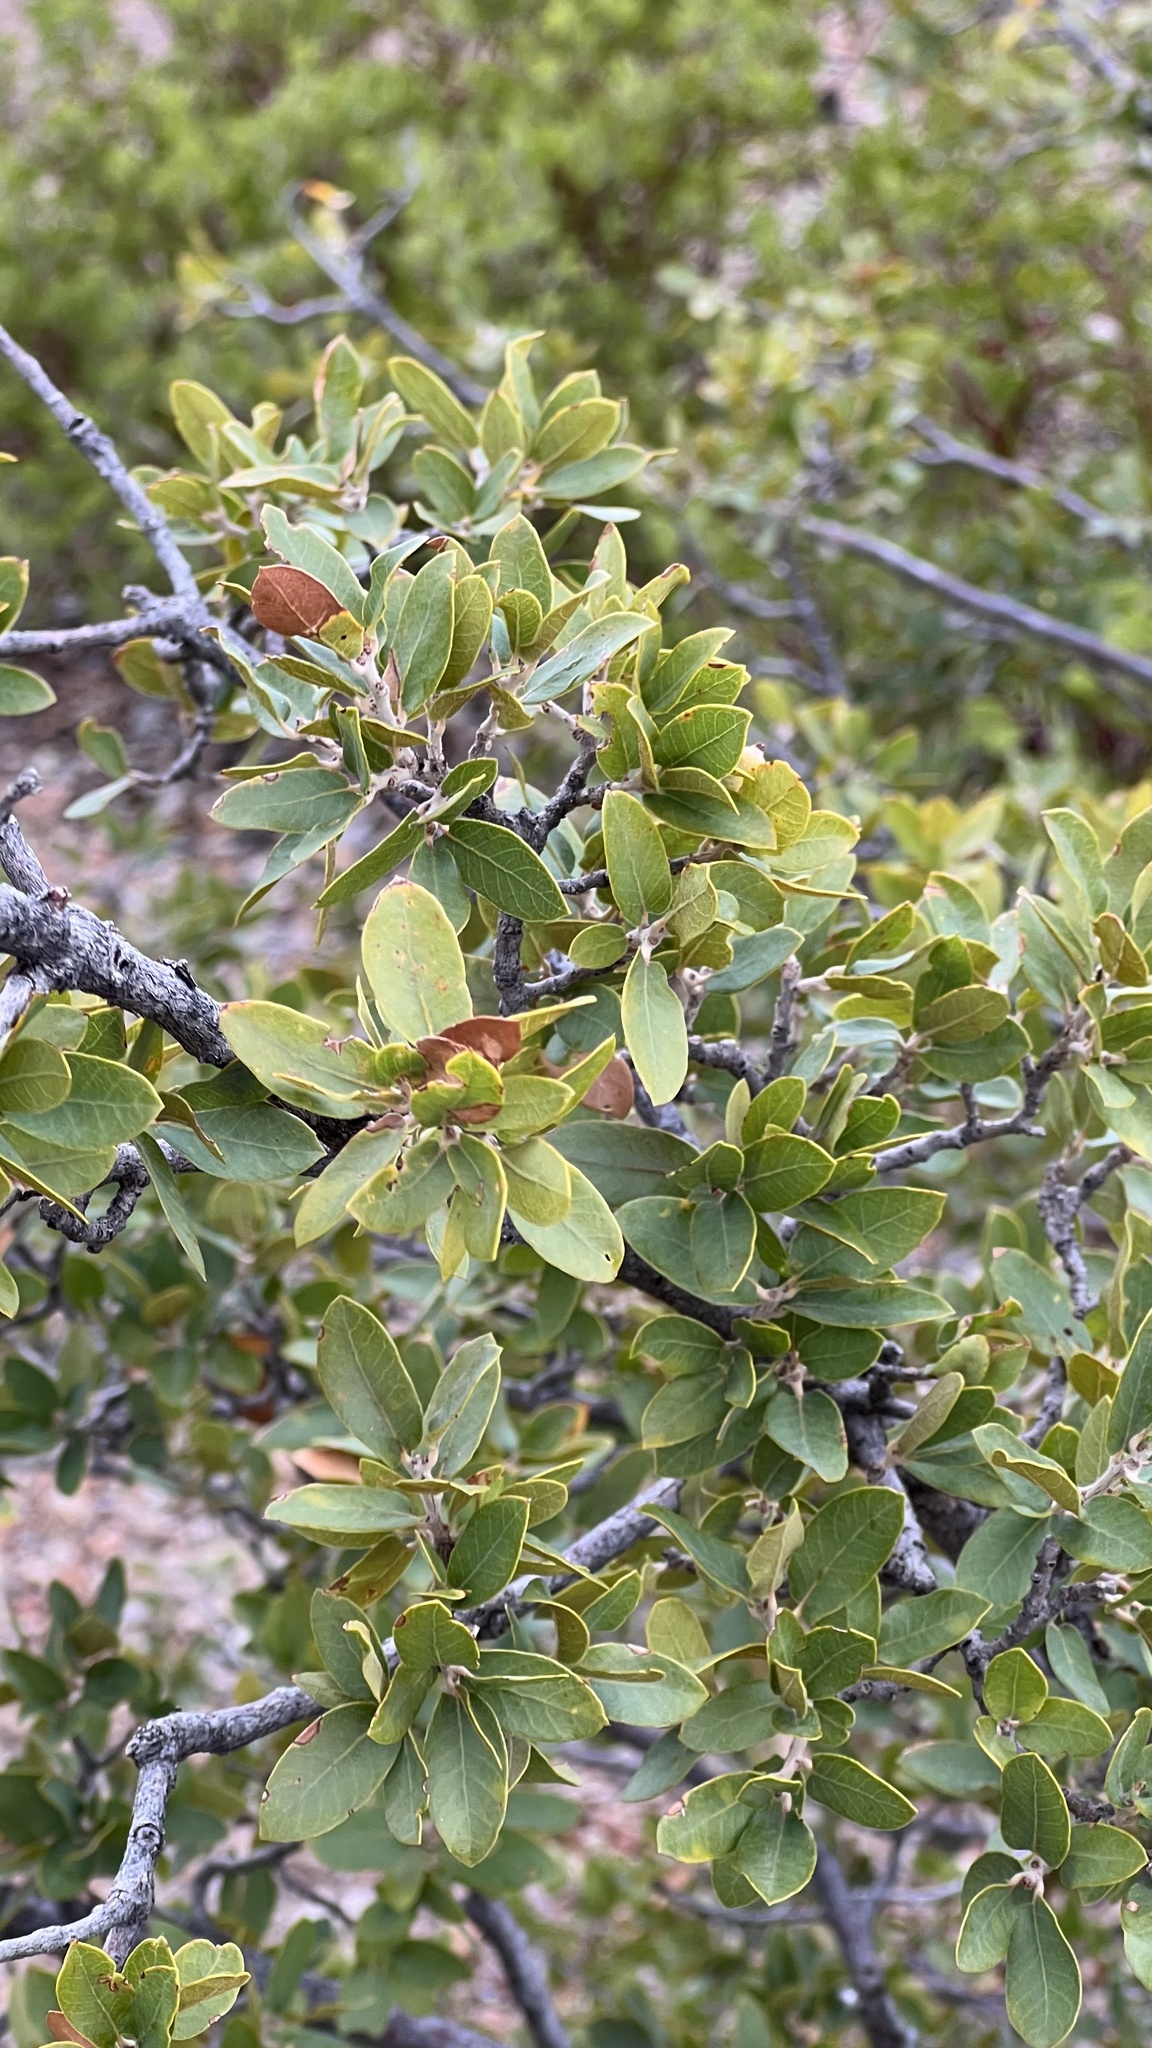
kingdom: Plantae
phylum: Tracheophyta
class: Magnoliopsida
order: Fagales
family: Fagaceae
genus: Quercus
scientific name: Quercus toumeyi
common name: Toumey oak
